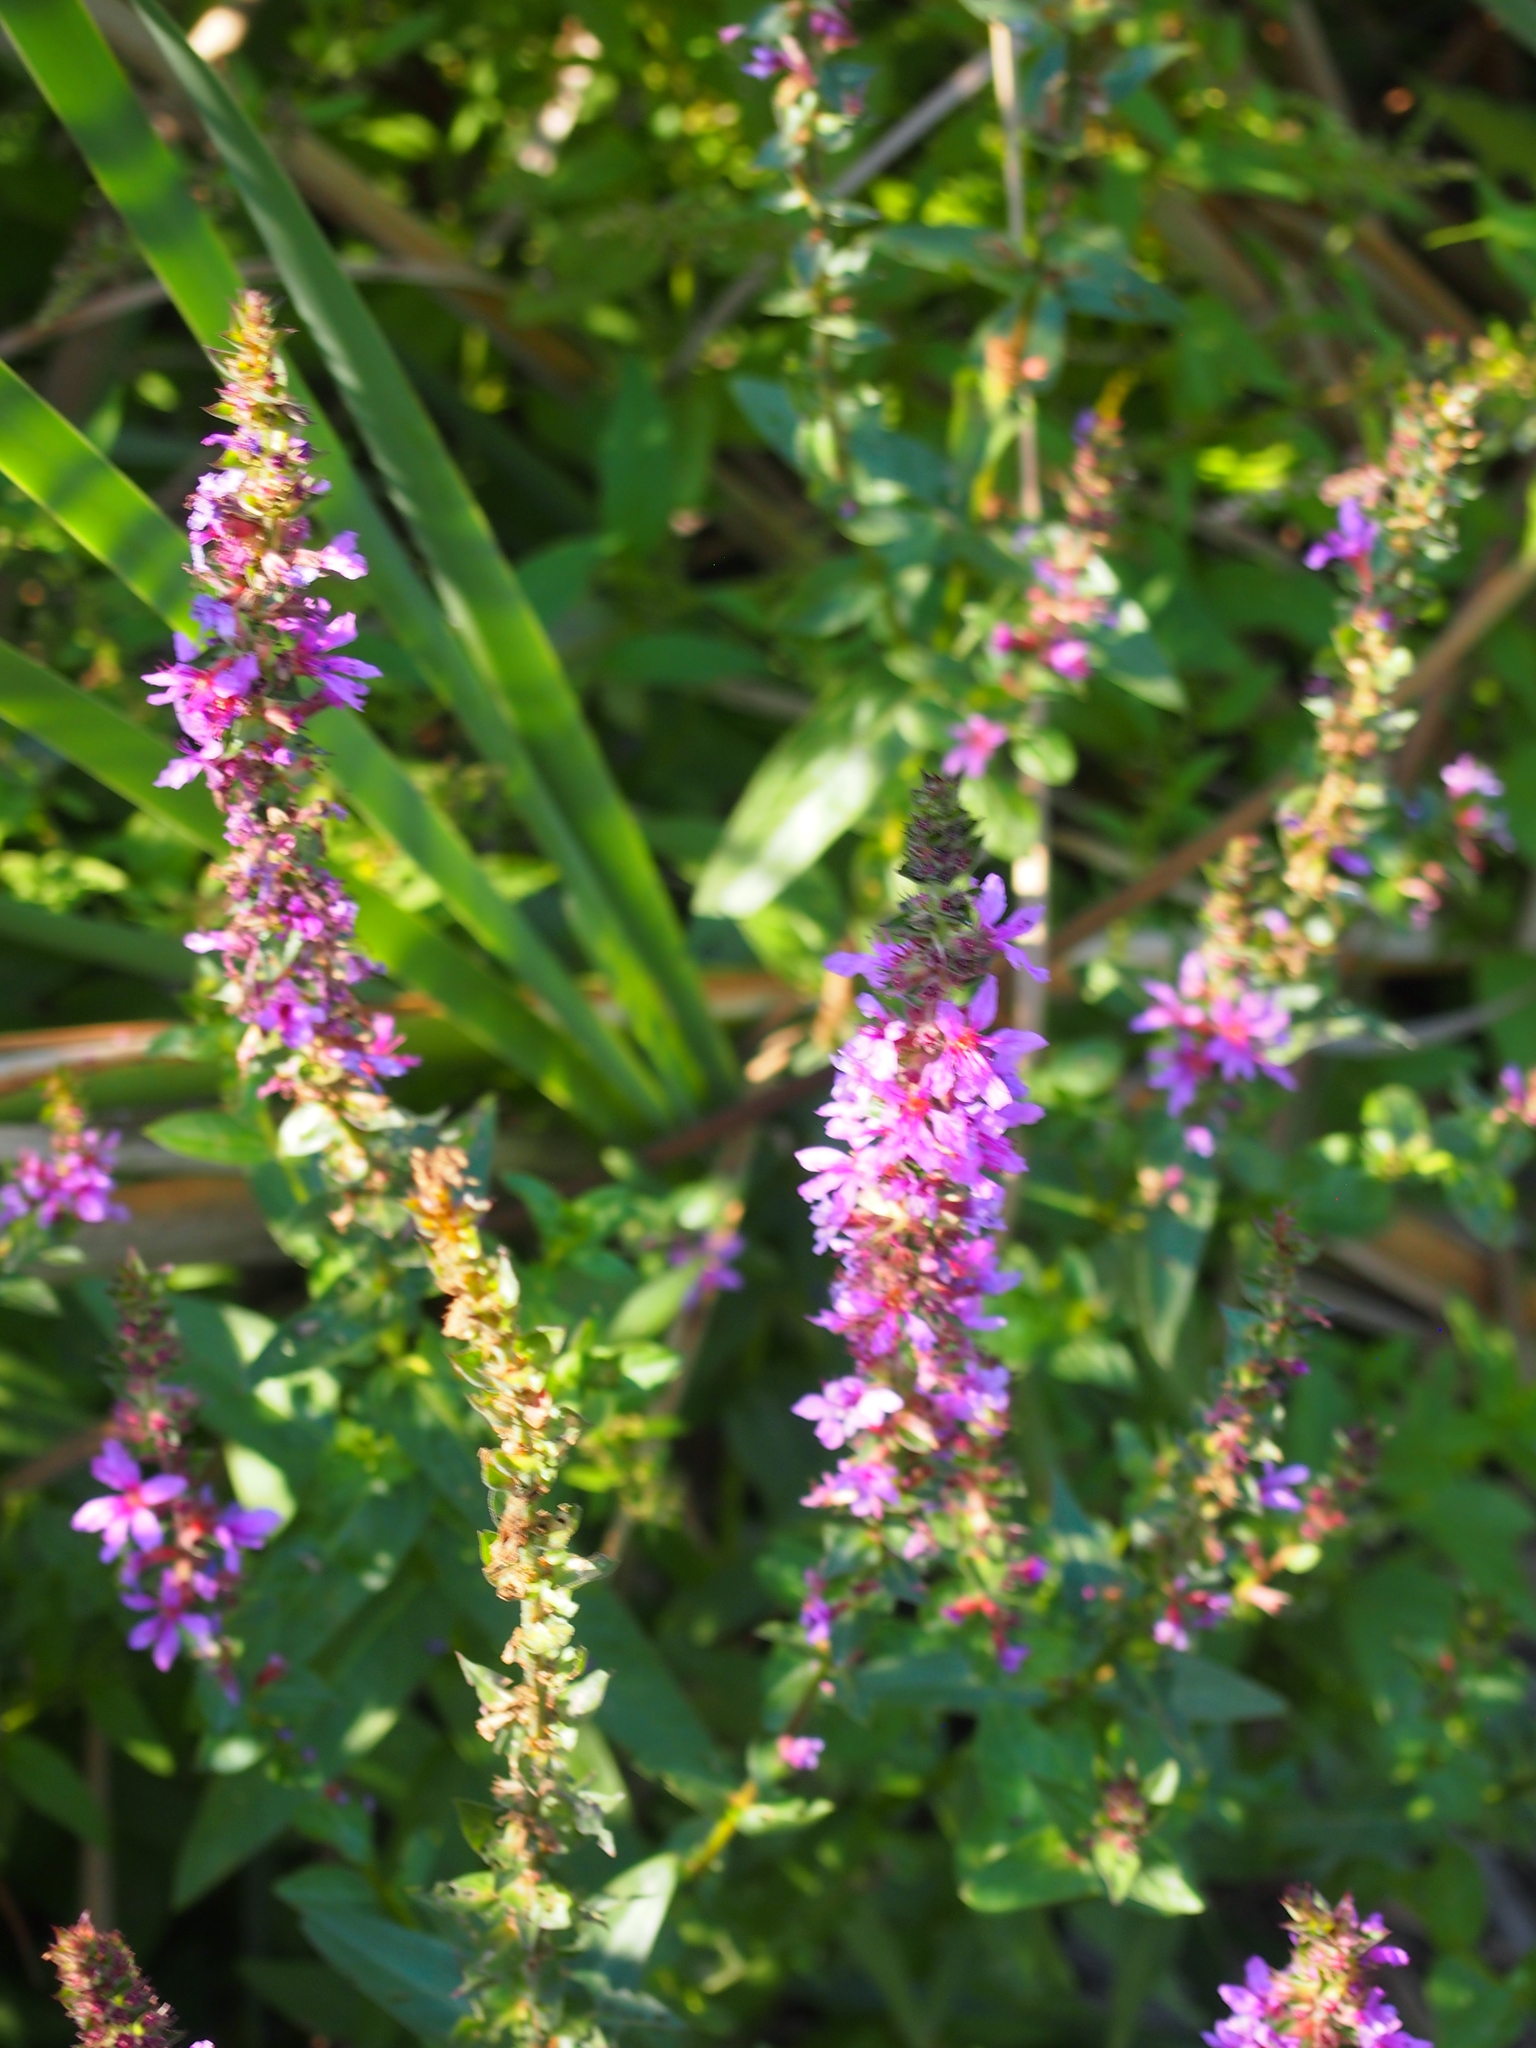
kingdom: Plantae
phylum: Tracheophyta
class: Magnoliopsida
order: Myrtales
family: Lythraceae
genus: Lythrum
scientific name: Lythrum salicaria
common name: Purple loosestrife
